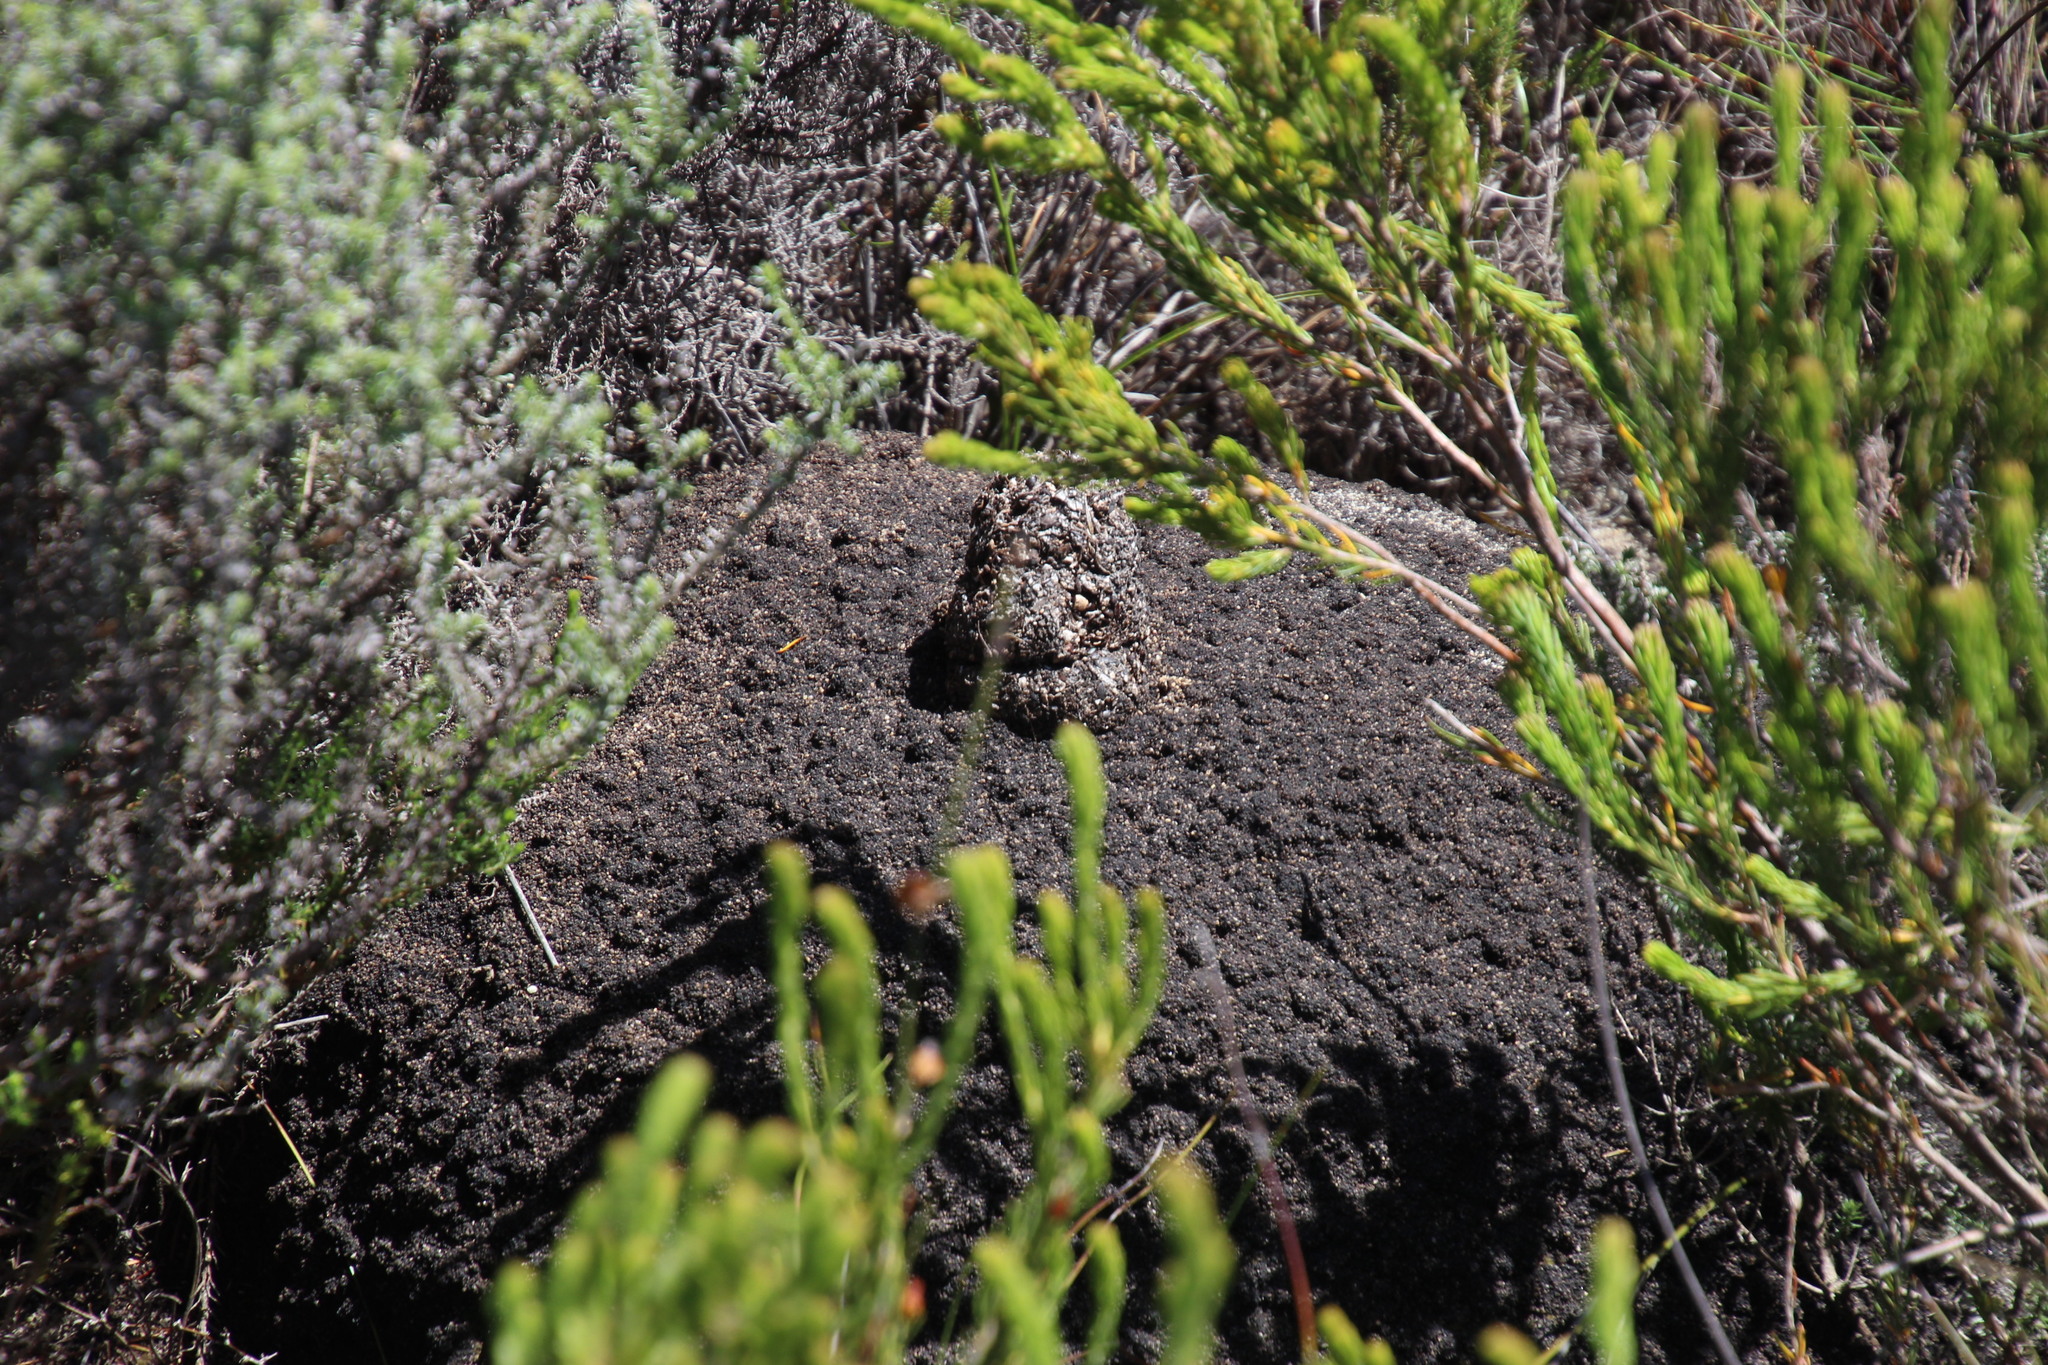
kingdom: Animalia
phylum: Arthropoda
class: Insecta
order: Blattodea
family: Termitidae
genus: Amitermes
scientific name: Amitermes hastatus
